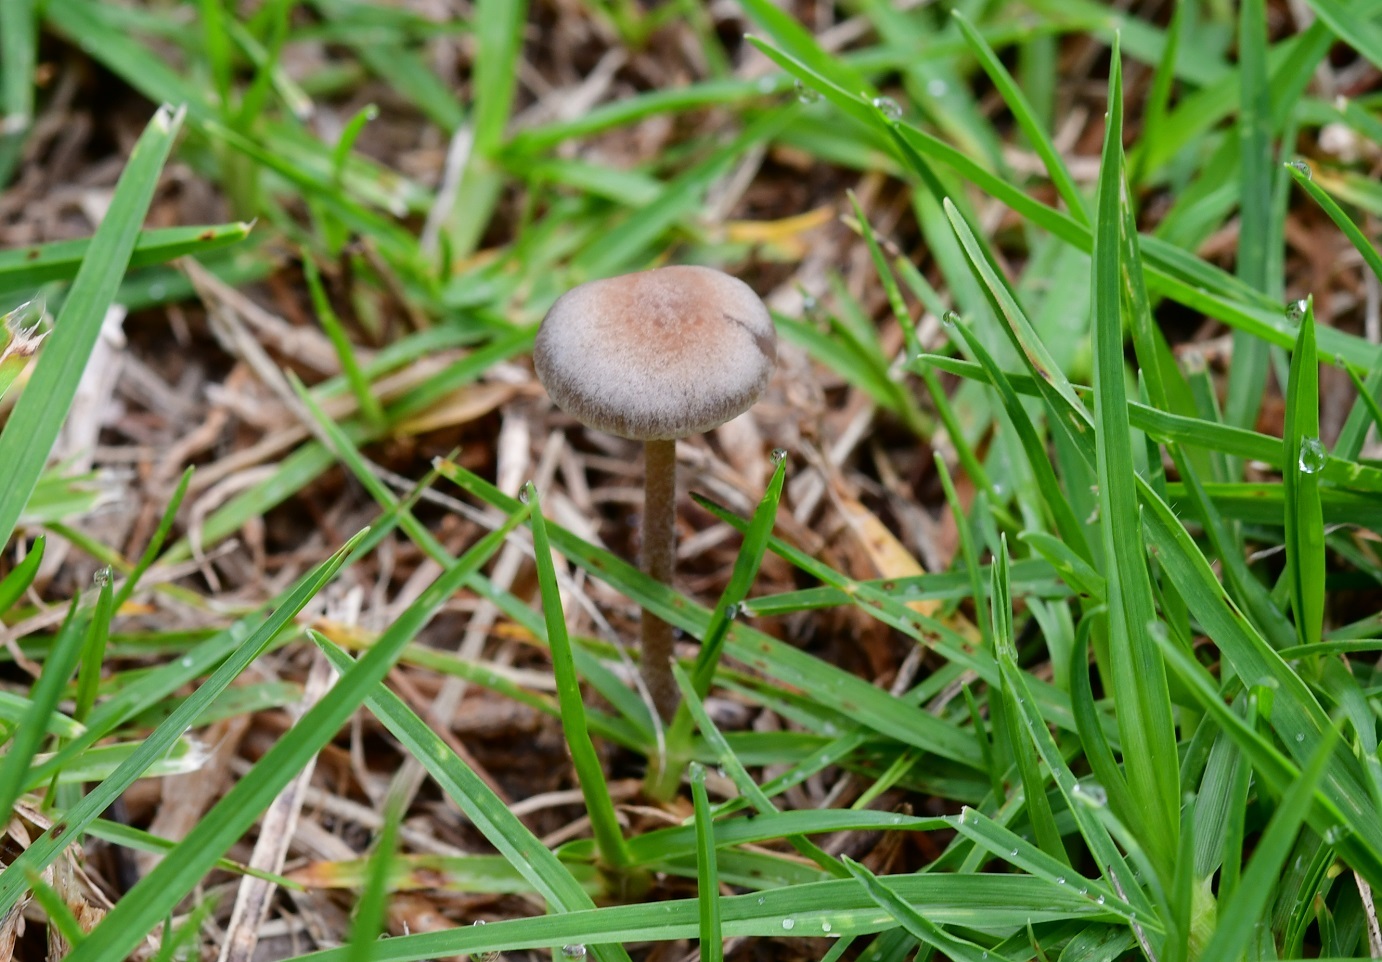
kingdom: Fungi
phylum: Basidiomycota
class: Agaricomycetes
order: Agaricales
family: Bolbitiaceae
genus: Panaeolina
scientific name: Panaeolina foenisecii
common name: Brown hay cap
